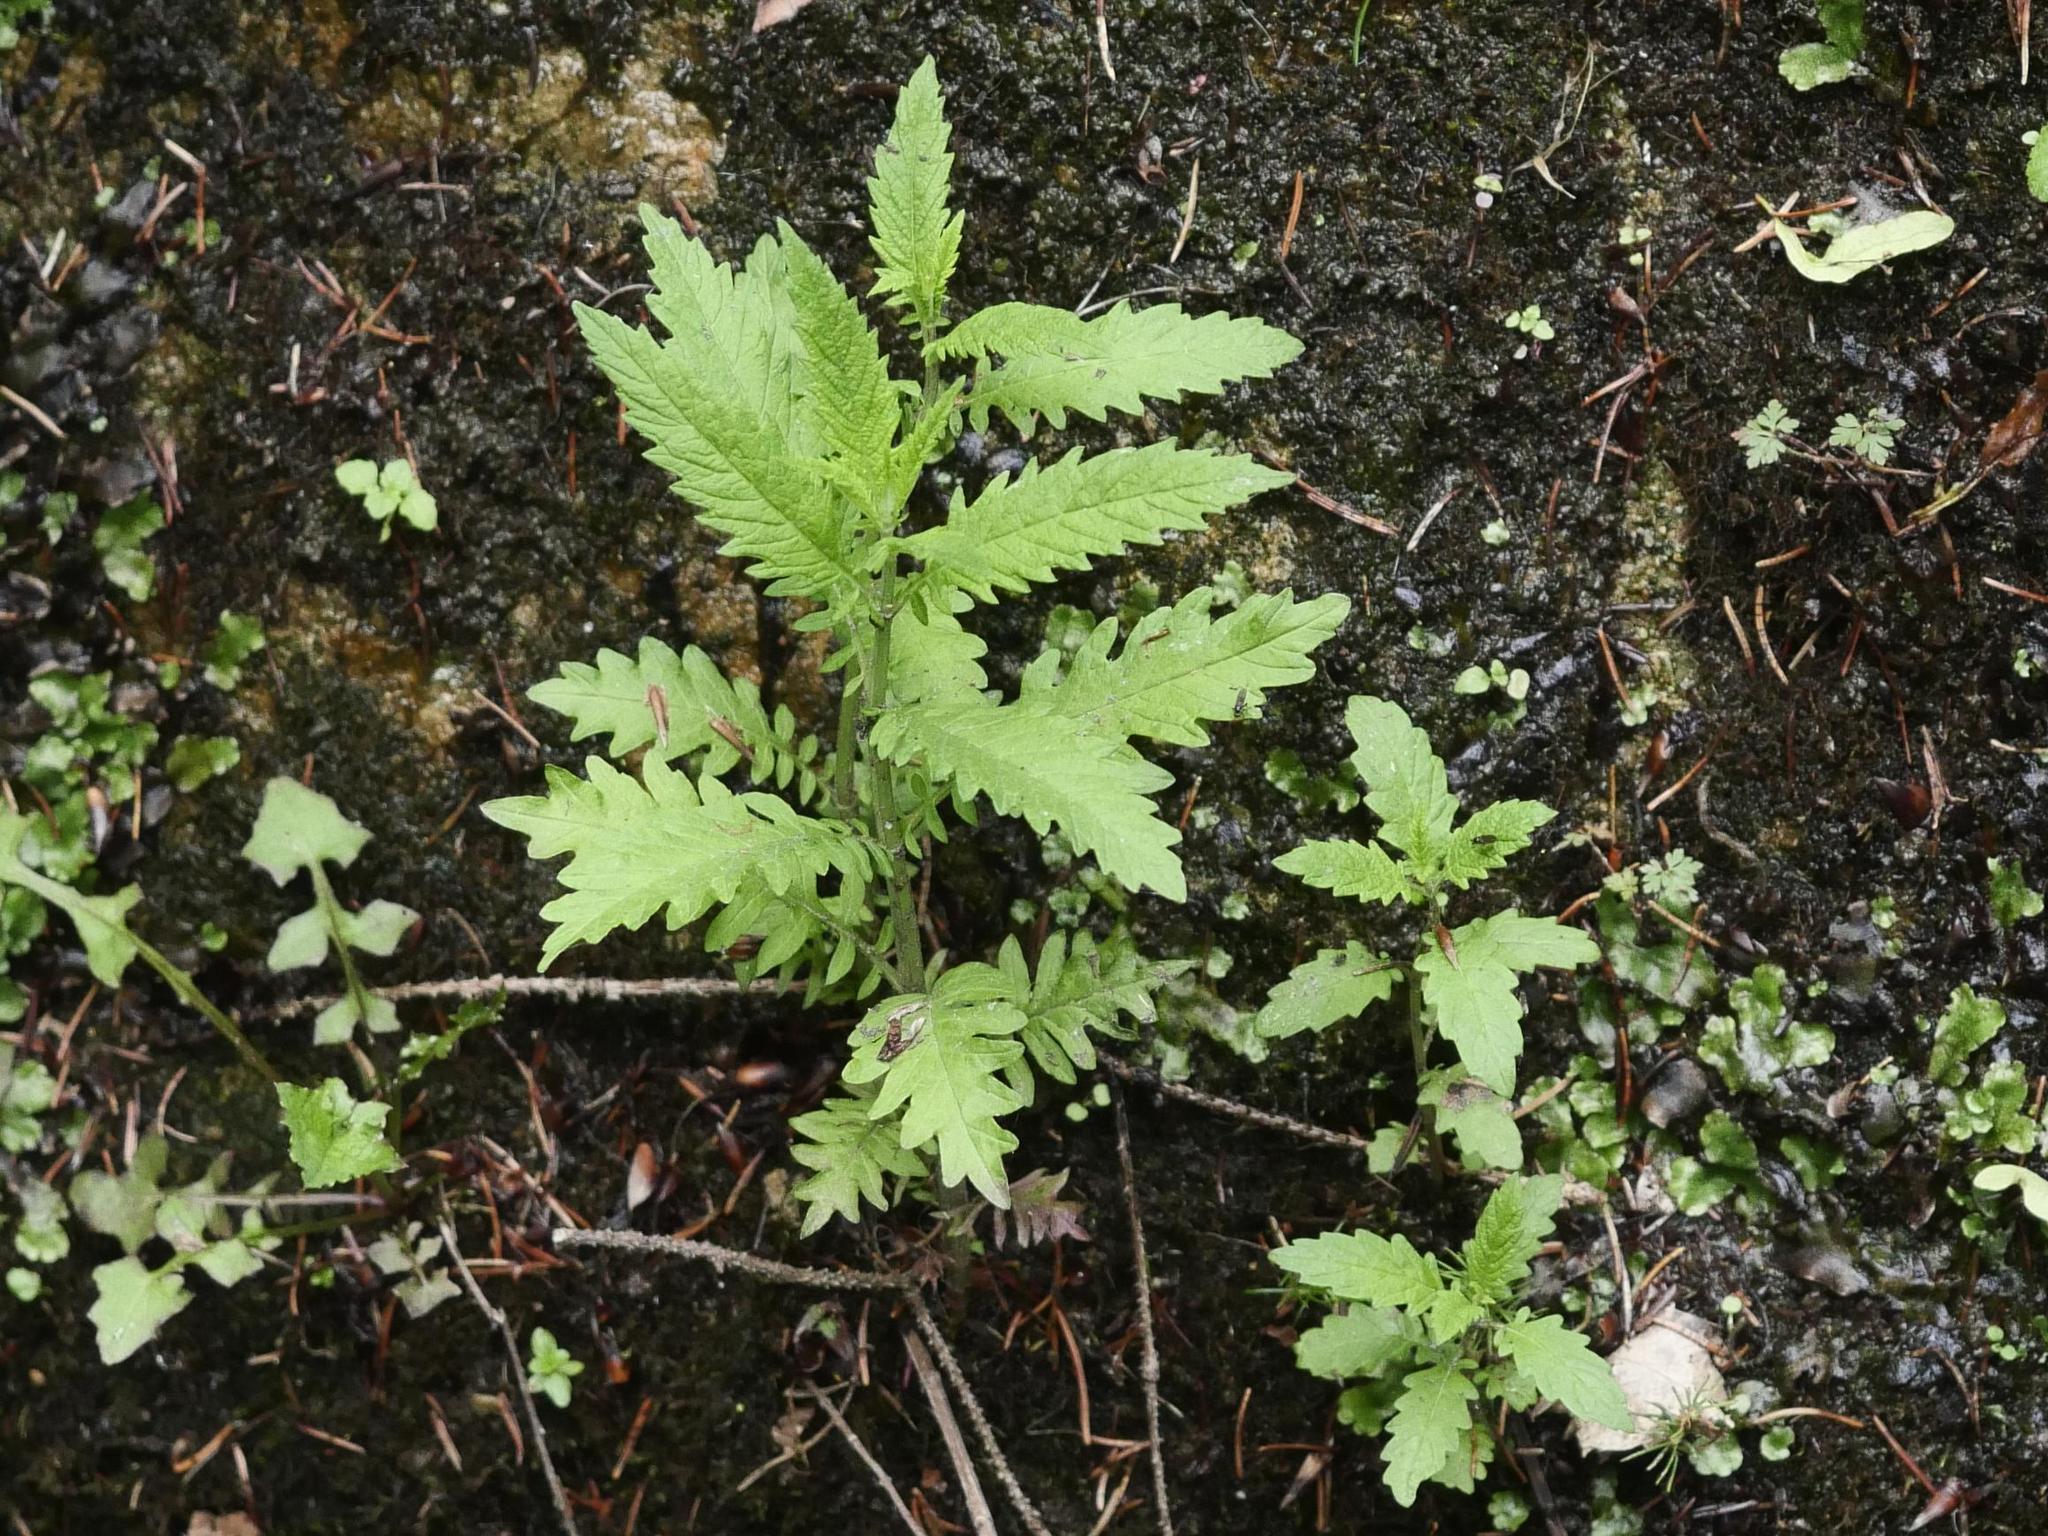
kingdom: Plantae
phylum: Tracheophyta
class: Magnoliopsida
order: Lamiales
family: Lamiaceae
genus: Lycopus
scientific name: Lycopus europaeus
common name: European bugleweed
